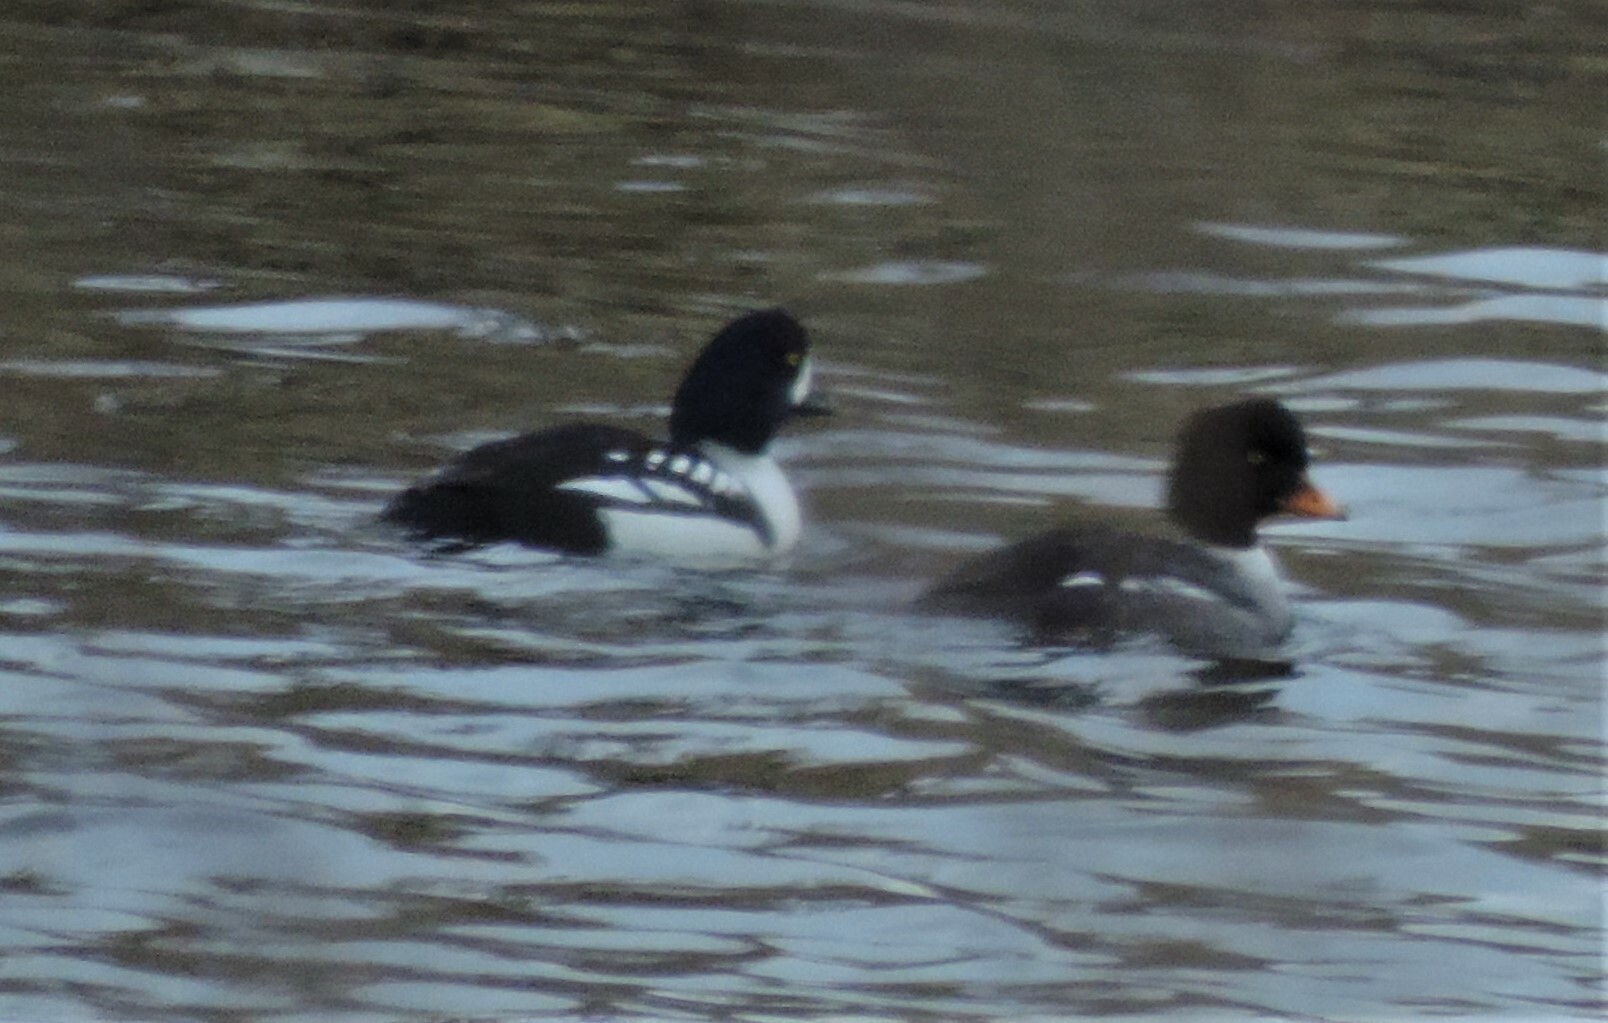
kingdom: Animalia
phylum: Chordata
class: Aves
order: Anseriformes
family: Anatidae
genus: Bucephala
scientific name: Bucephala islandica
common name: Barrow's goldeneye
